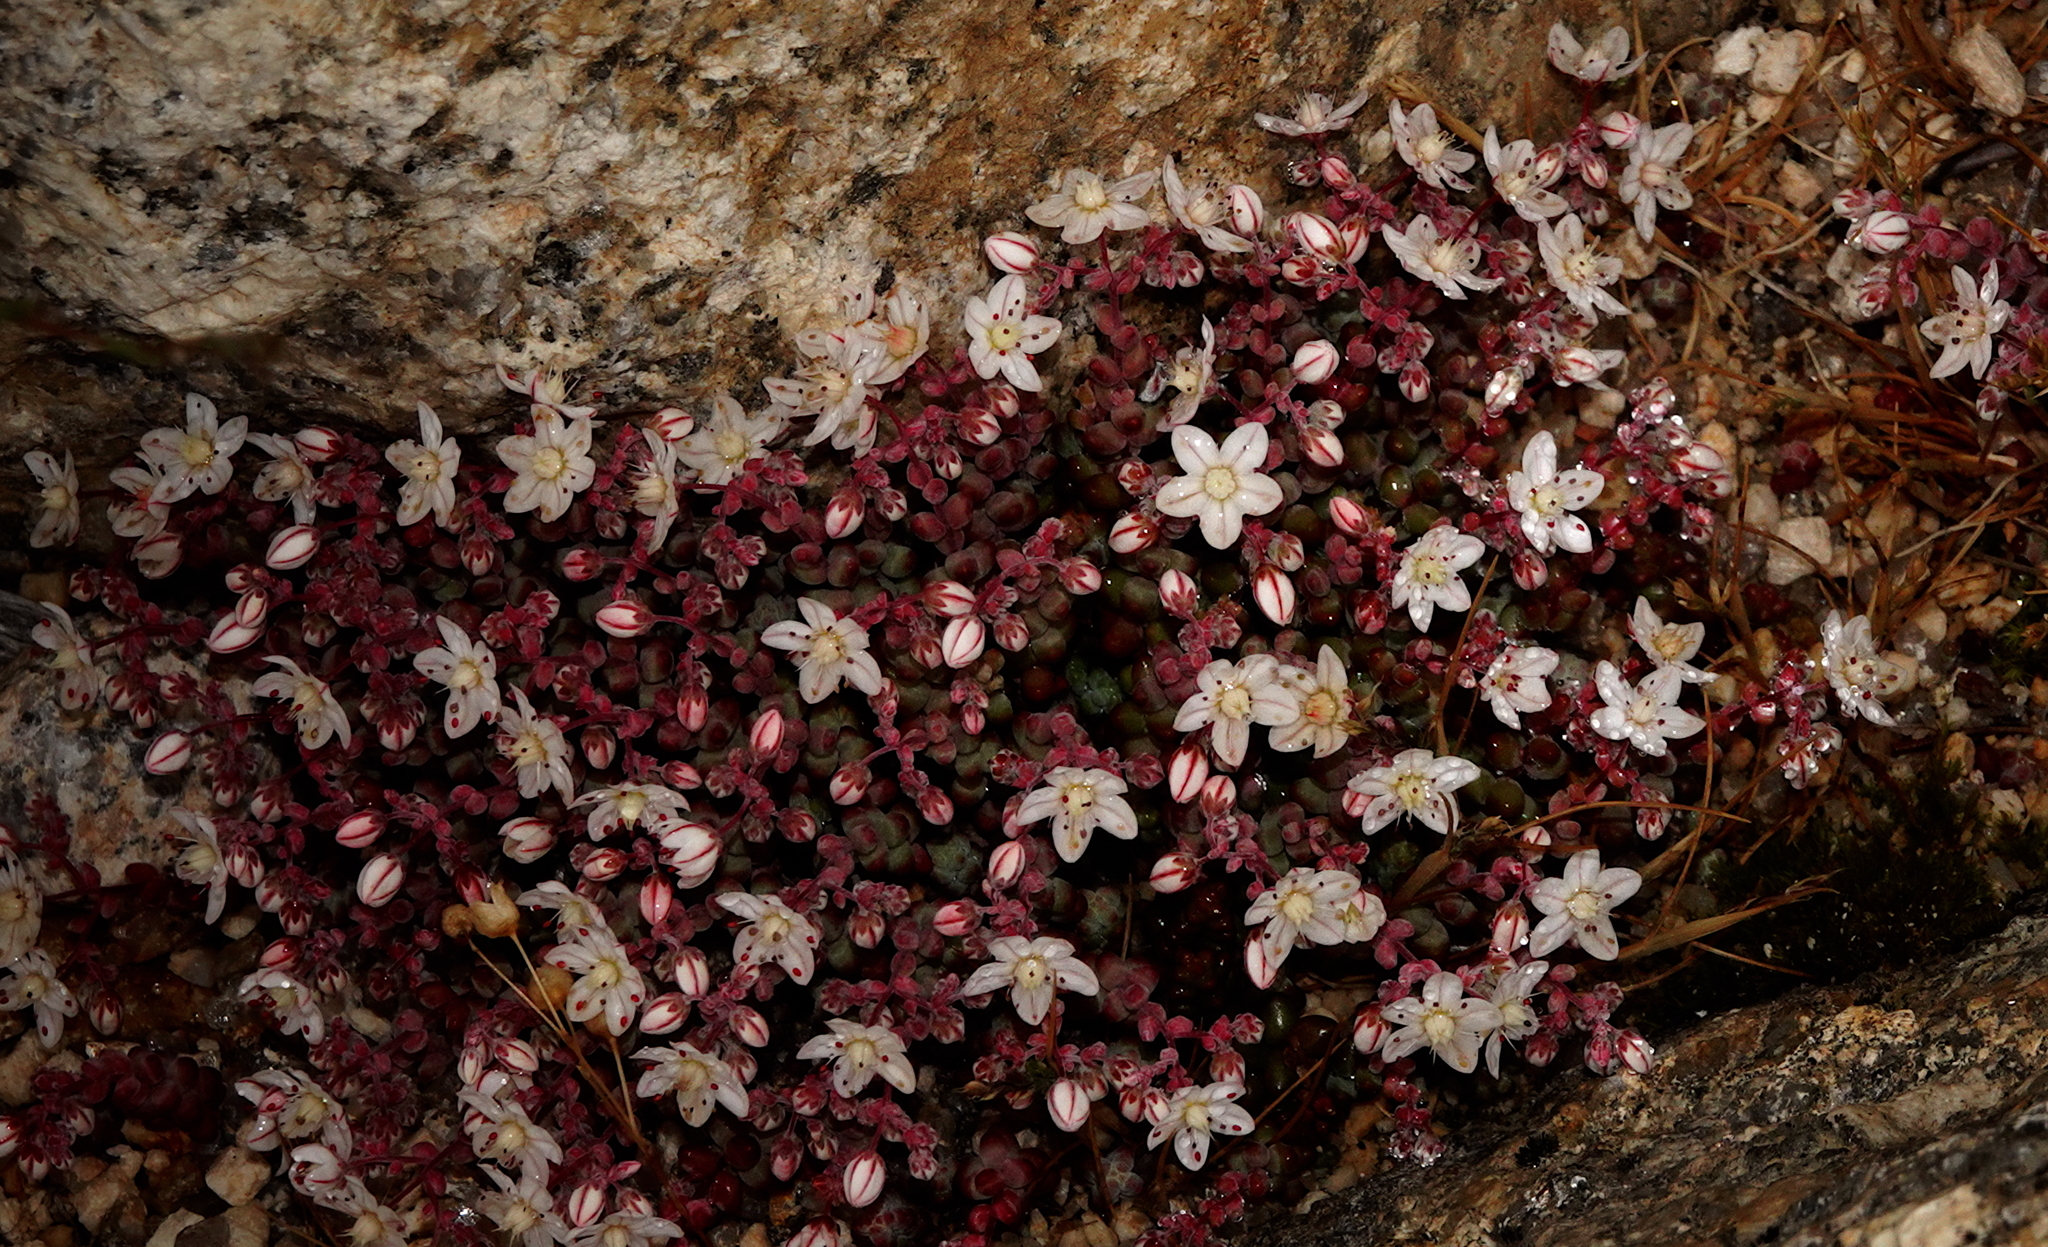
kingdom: Plantae
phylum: Tracheophyta
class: Magnoliopsida
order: Saxifragales
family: Crassulaceae
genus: Sedum
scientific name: Sedum brevifolium
